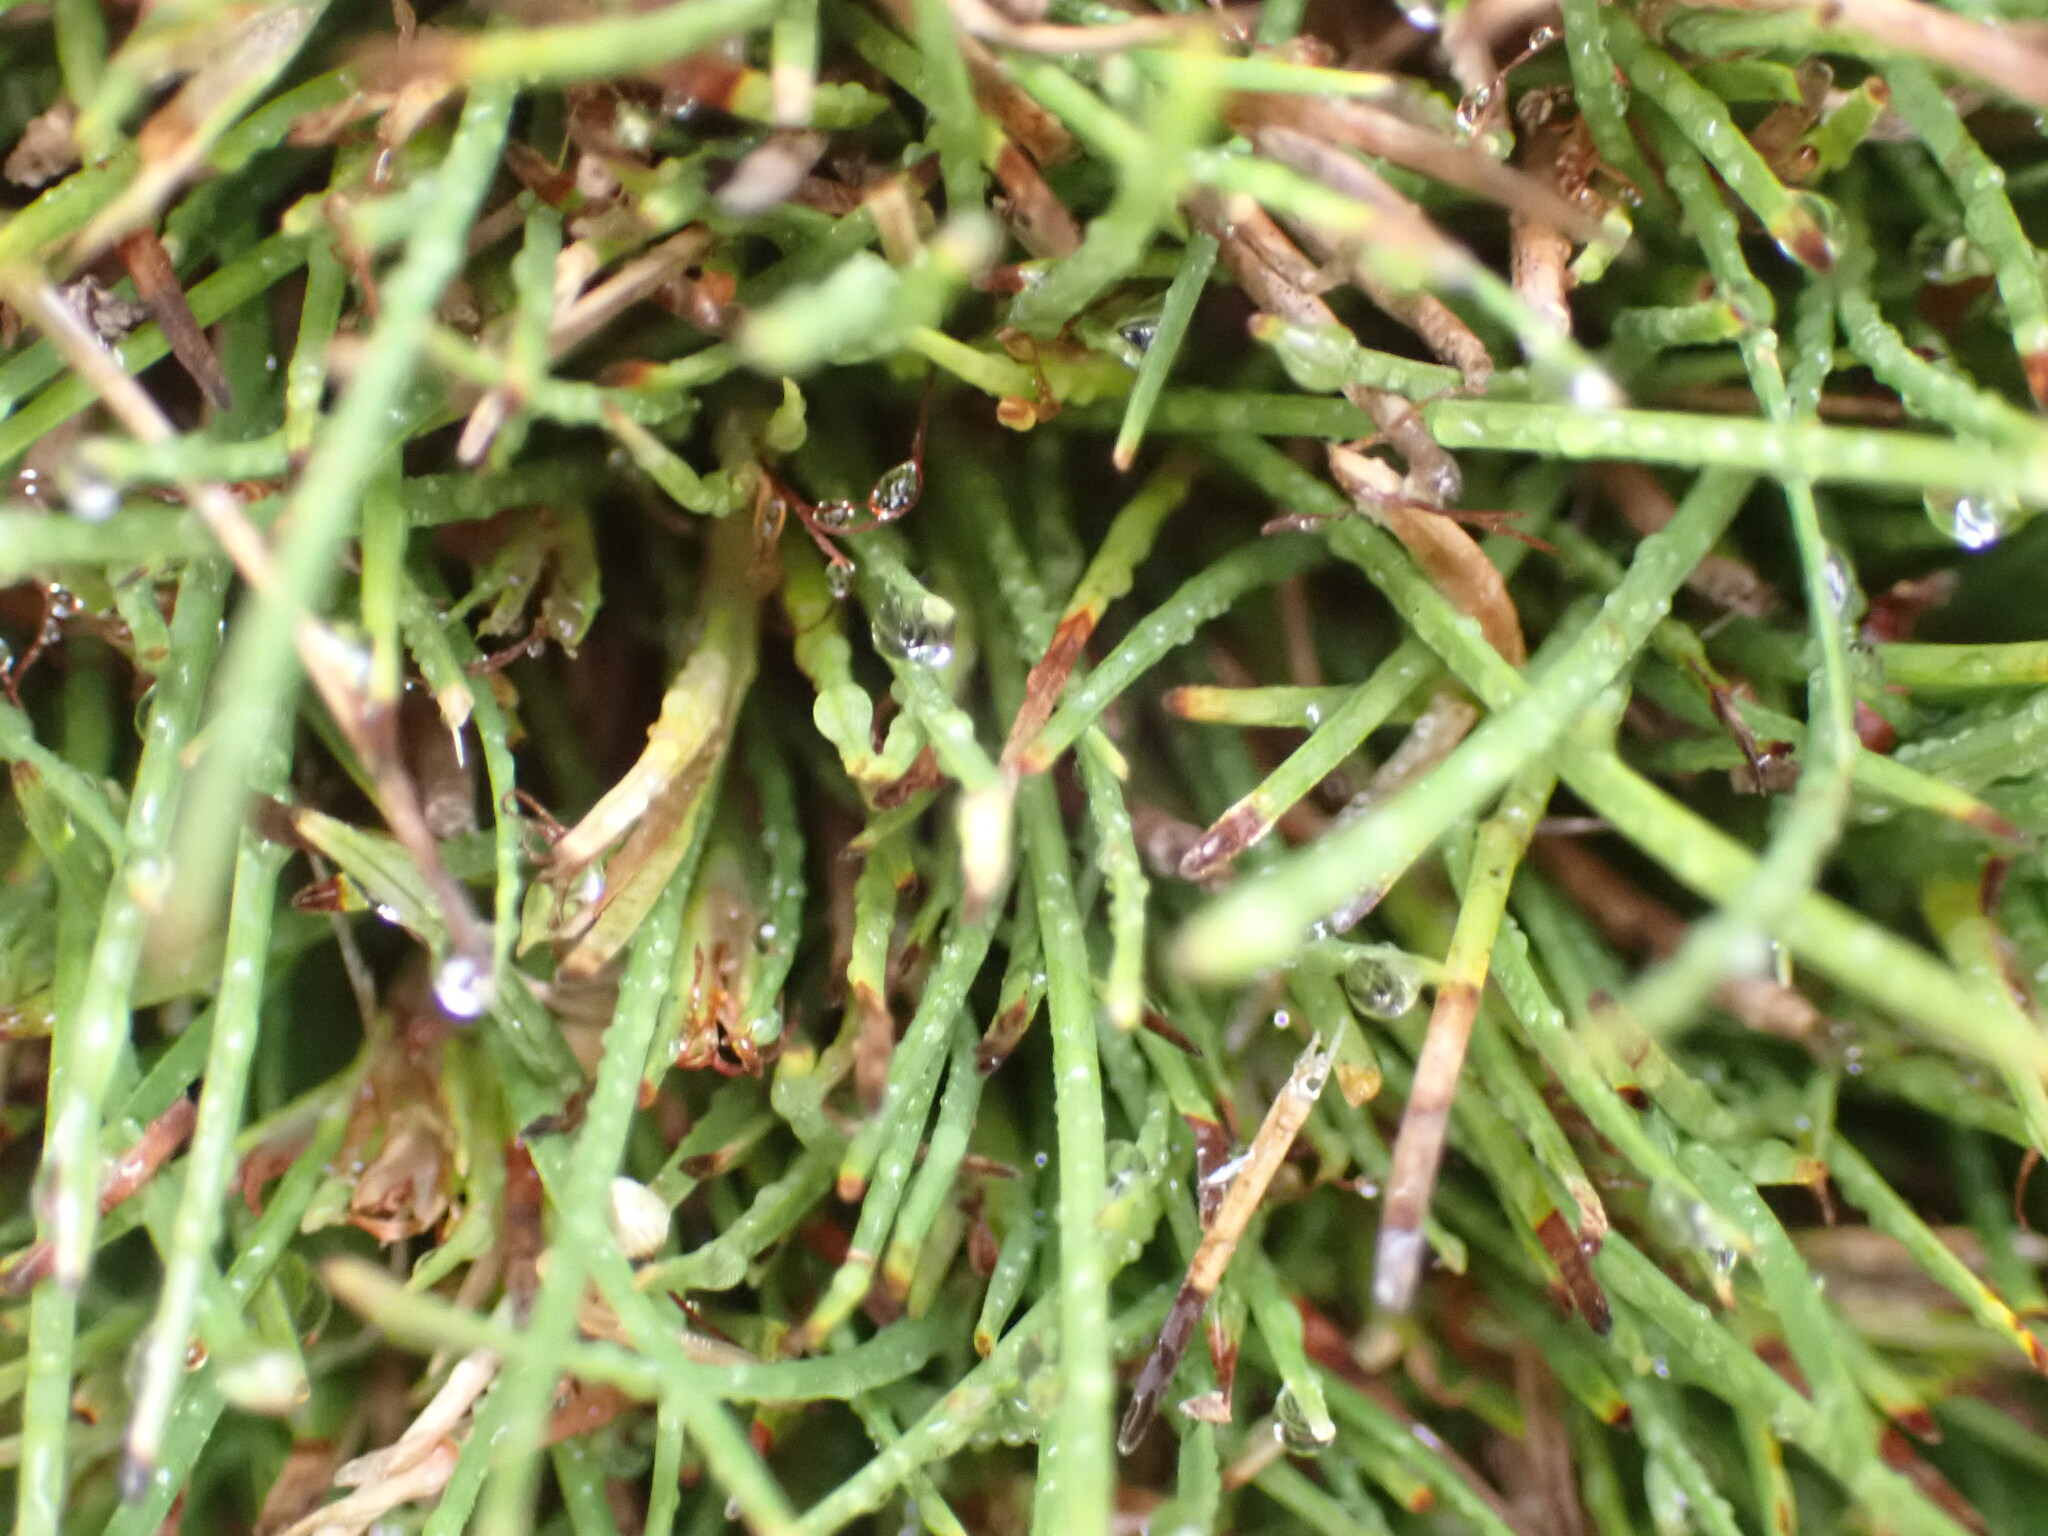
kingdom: Plantae
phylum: Tracheophyta
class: Liliopsida
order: Poales
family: Cyperaceae
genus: Oreobolus
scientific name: Oreobolus strictus
